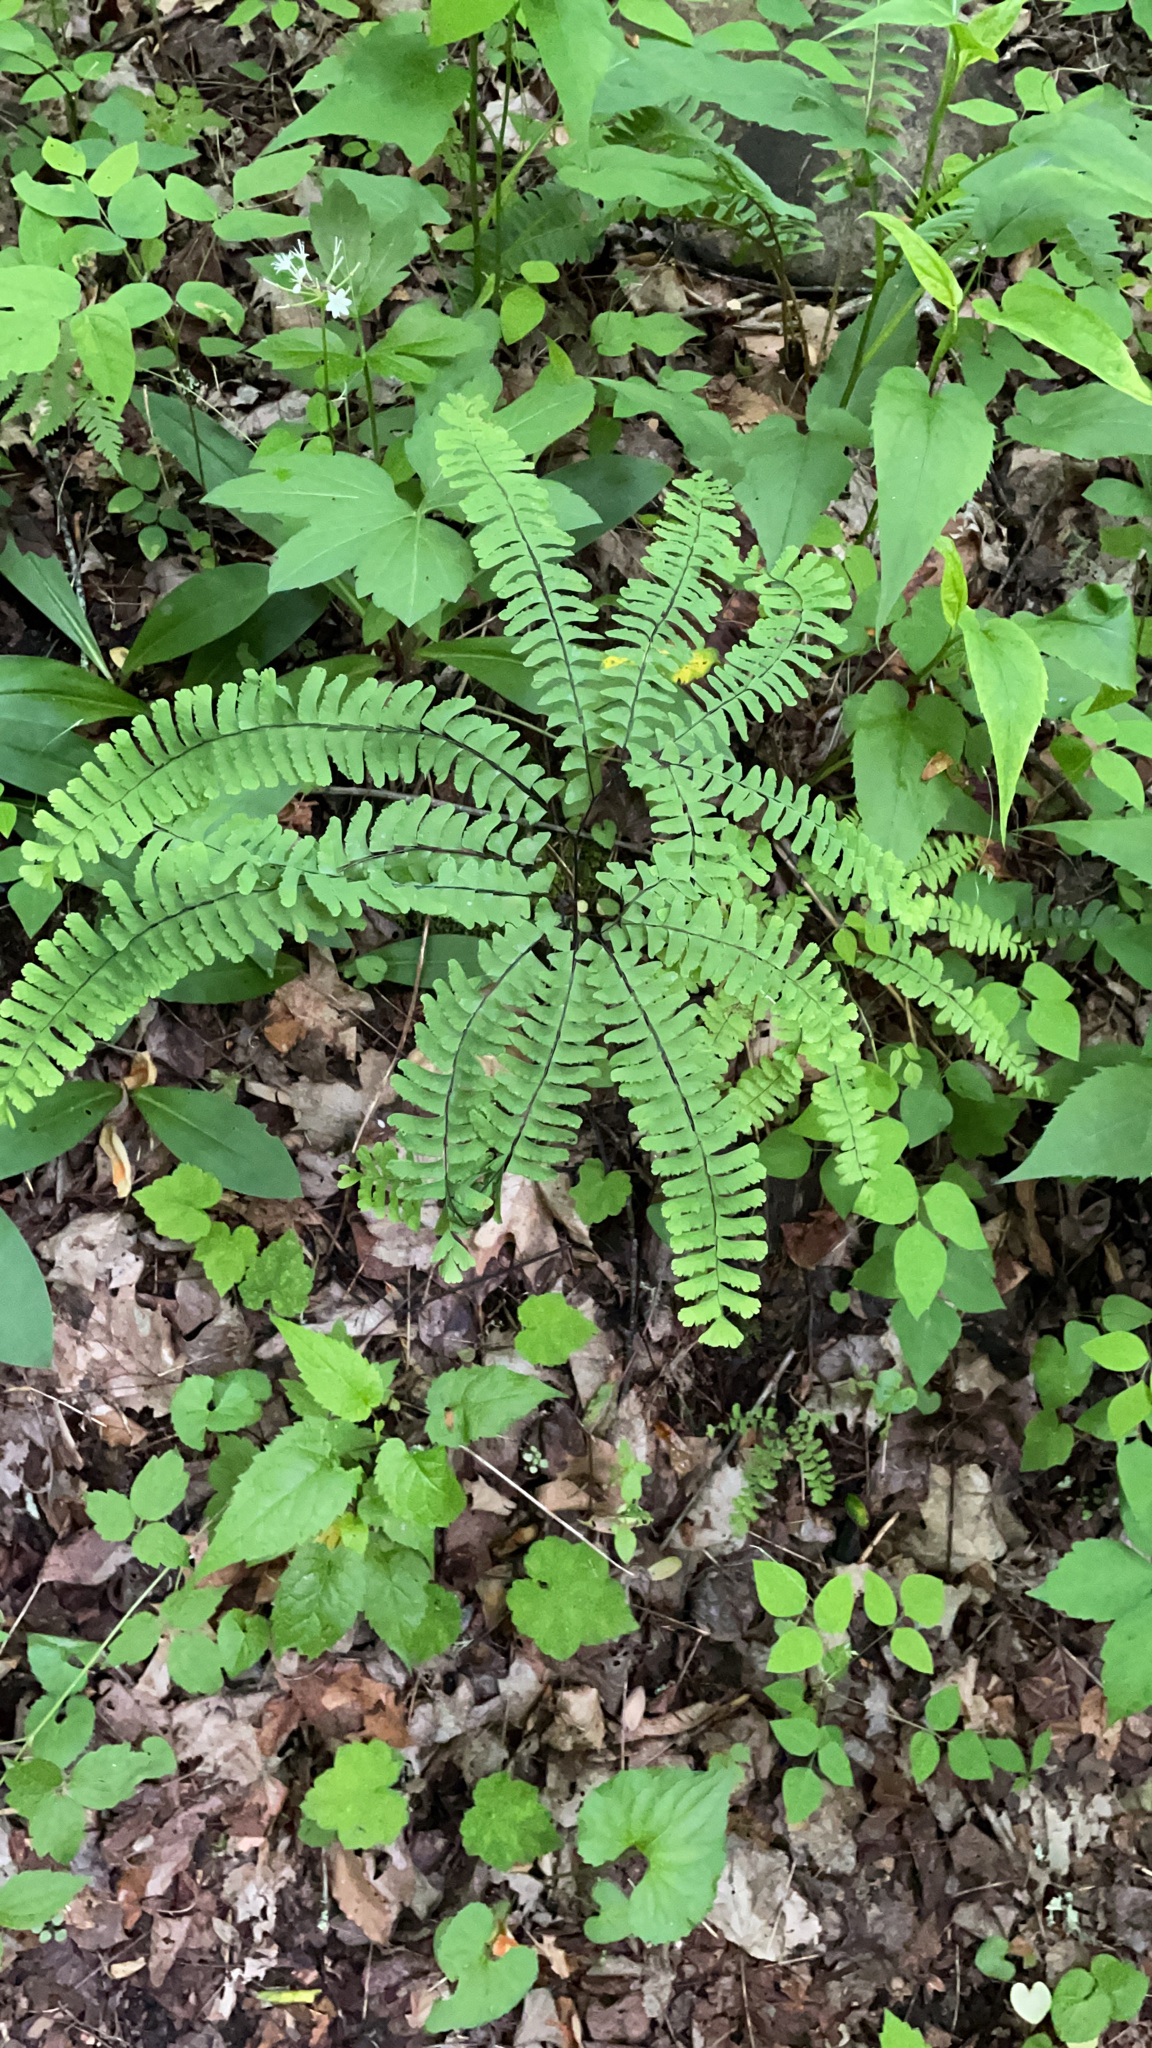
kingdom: Plantae
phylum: Tracheophyta
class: Polypodiopsida
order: Polypodiales
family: Pteridaceae
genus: Adiantum
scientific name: Adiantum pedatum
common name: Five-finger fern
